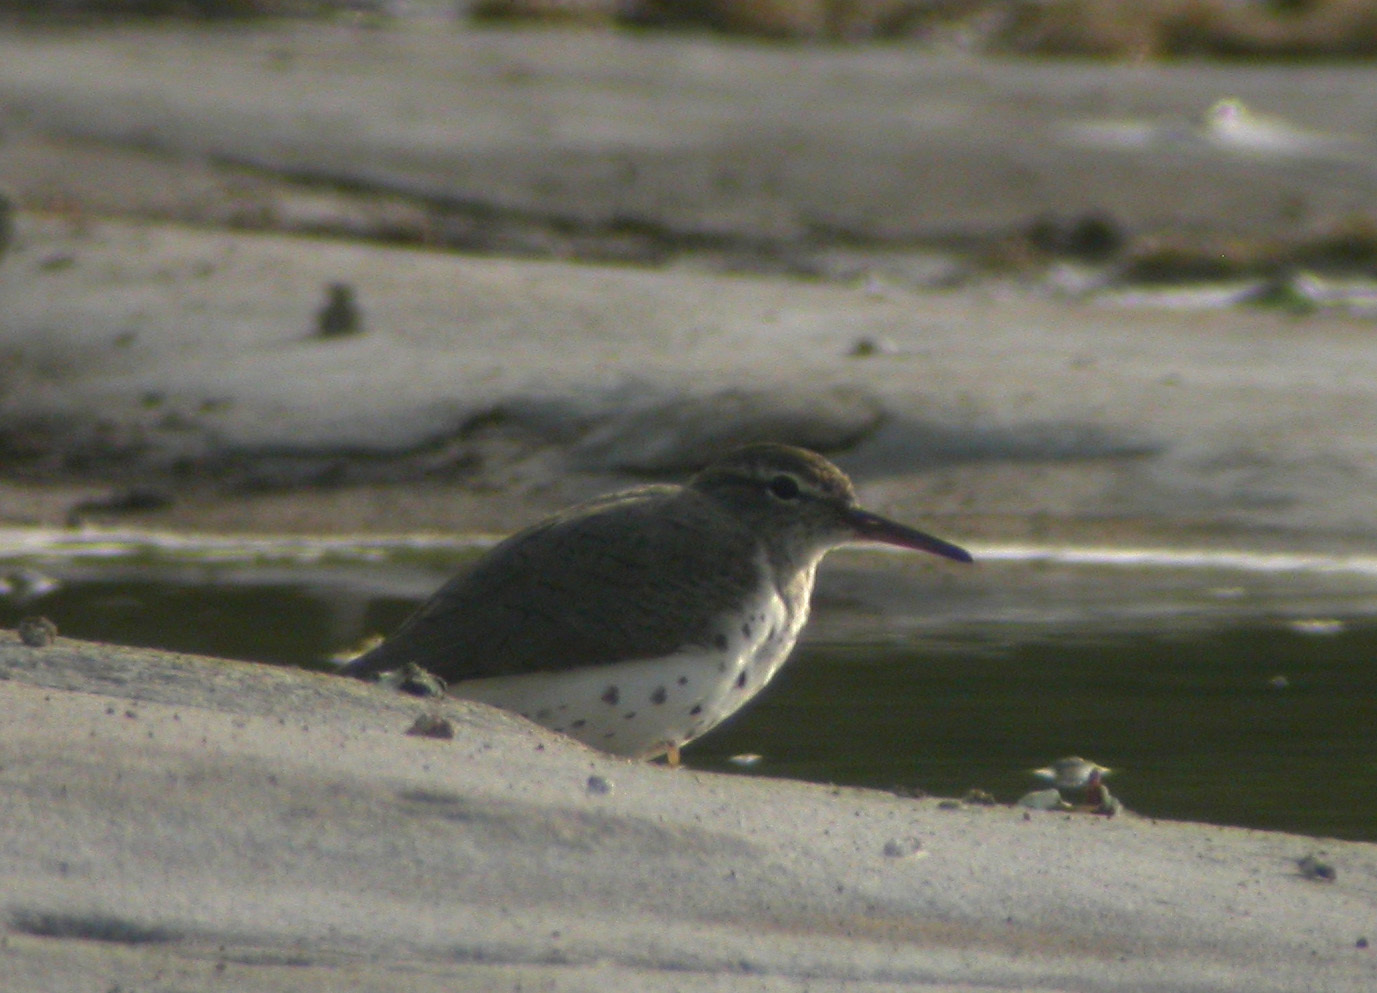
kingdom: Animalia
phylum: Chordata
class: Aves
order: Charadriiformes
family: Scolopacidae
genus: Actitis
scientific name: Actitis macularius
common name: Spotted sandpiper
